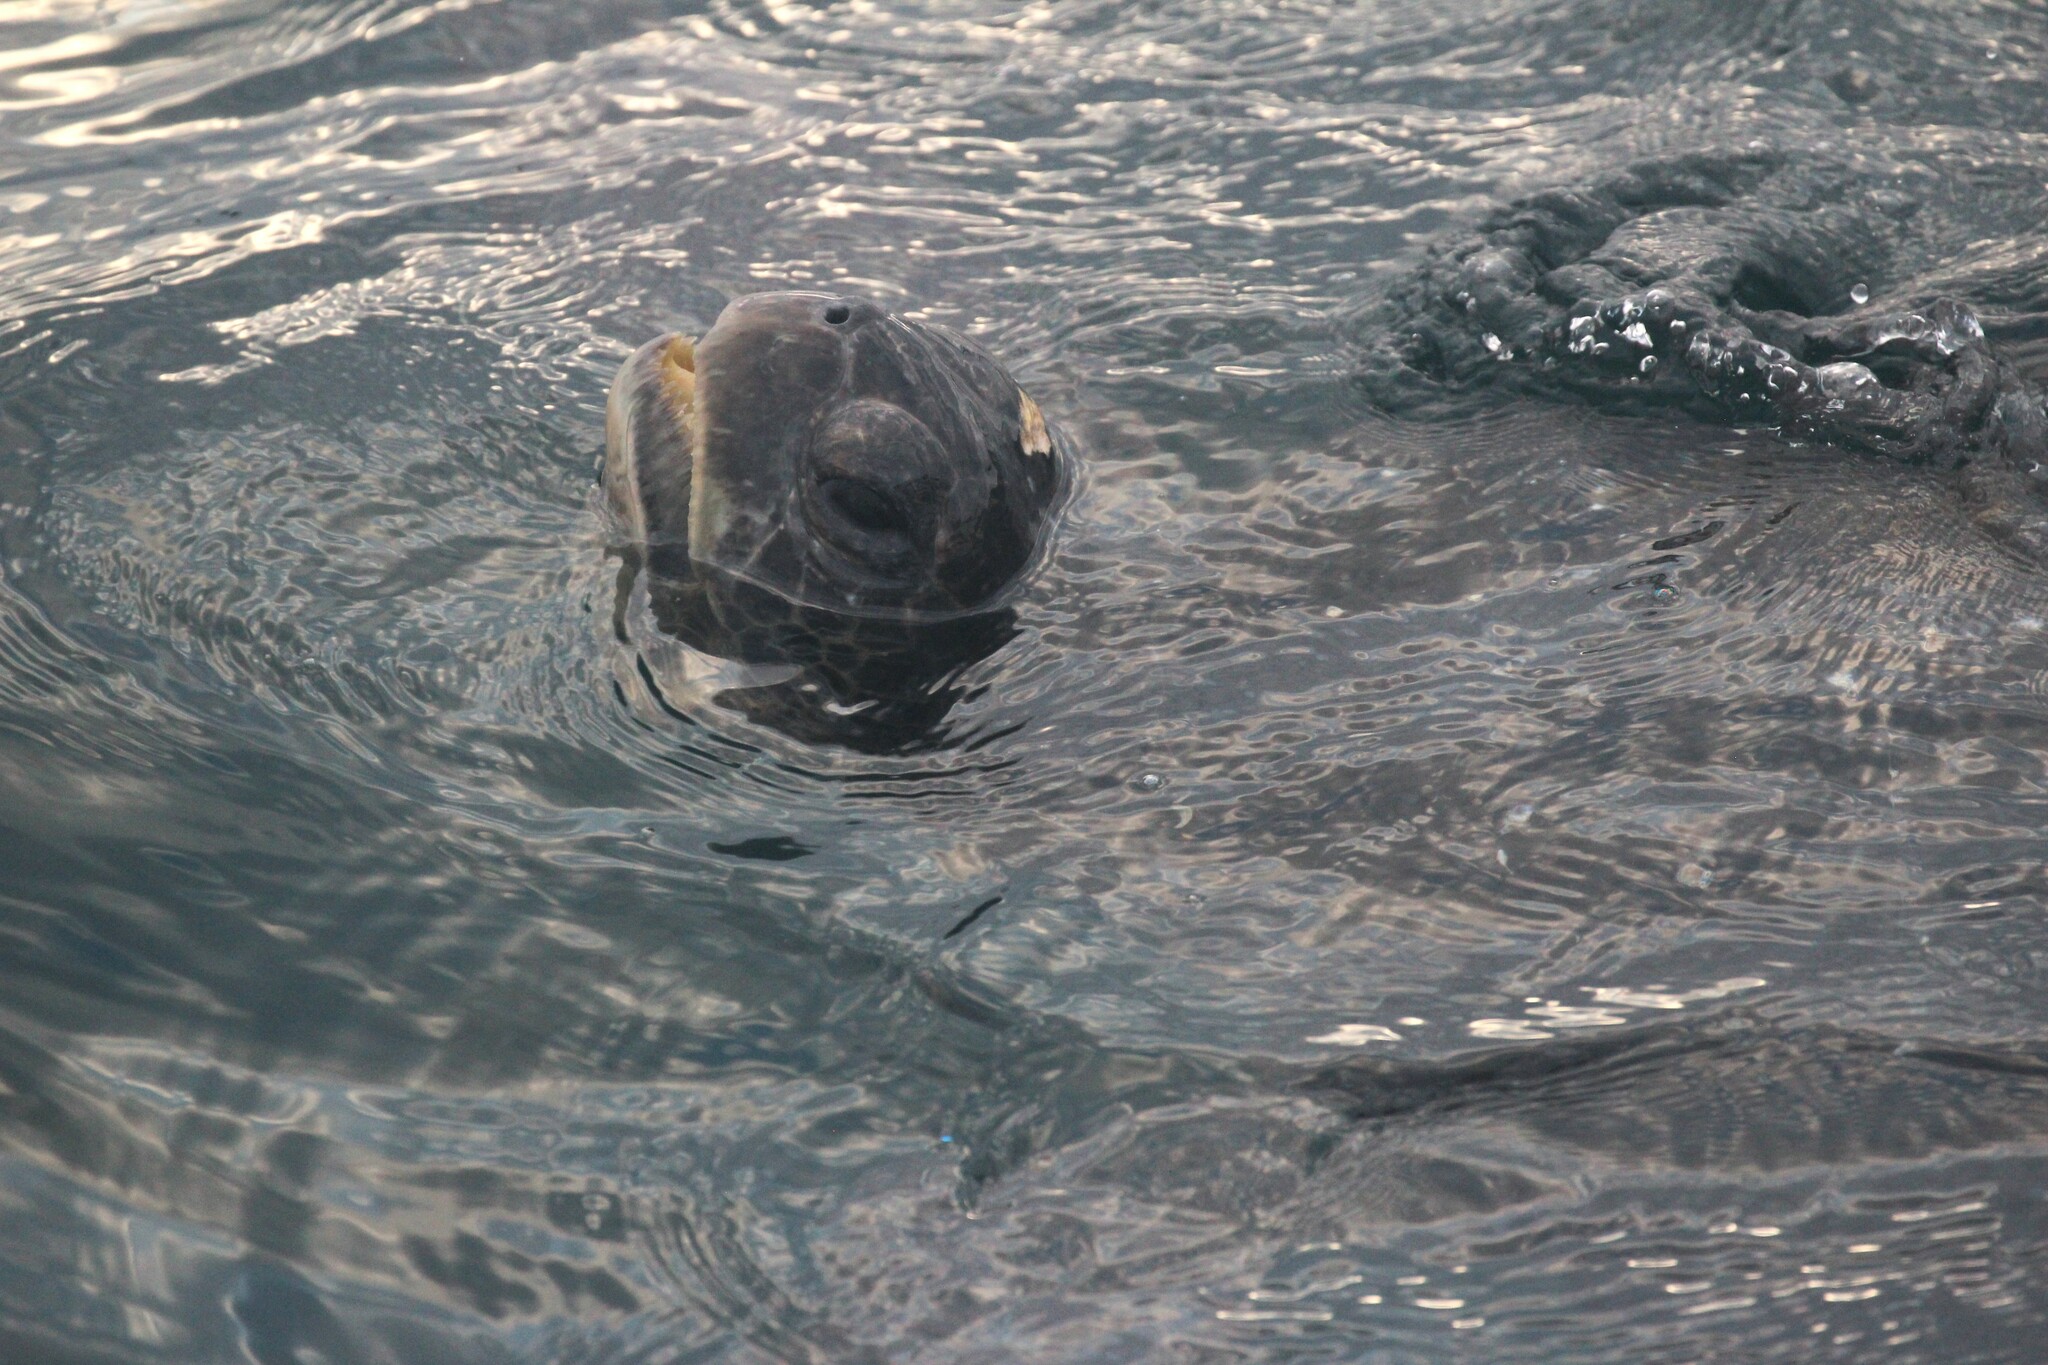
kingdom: Animalia
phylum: Chordata
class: Testudines
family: Cheloniidae
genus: Chelonia
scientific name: Chelonia mydas
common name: Green turtle
